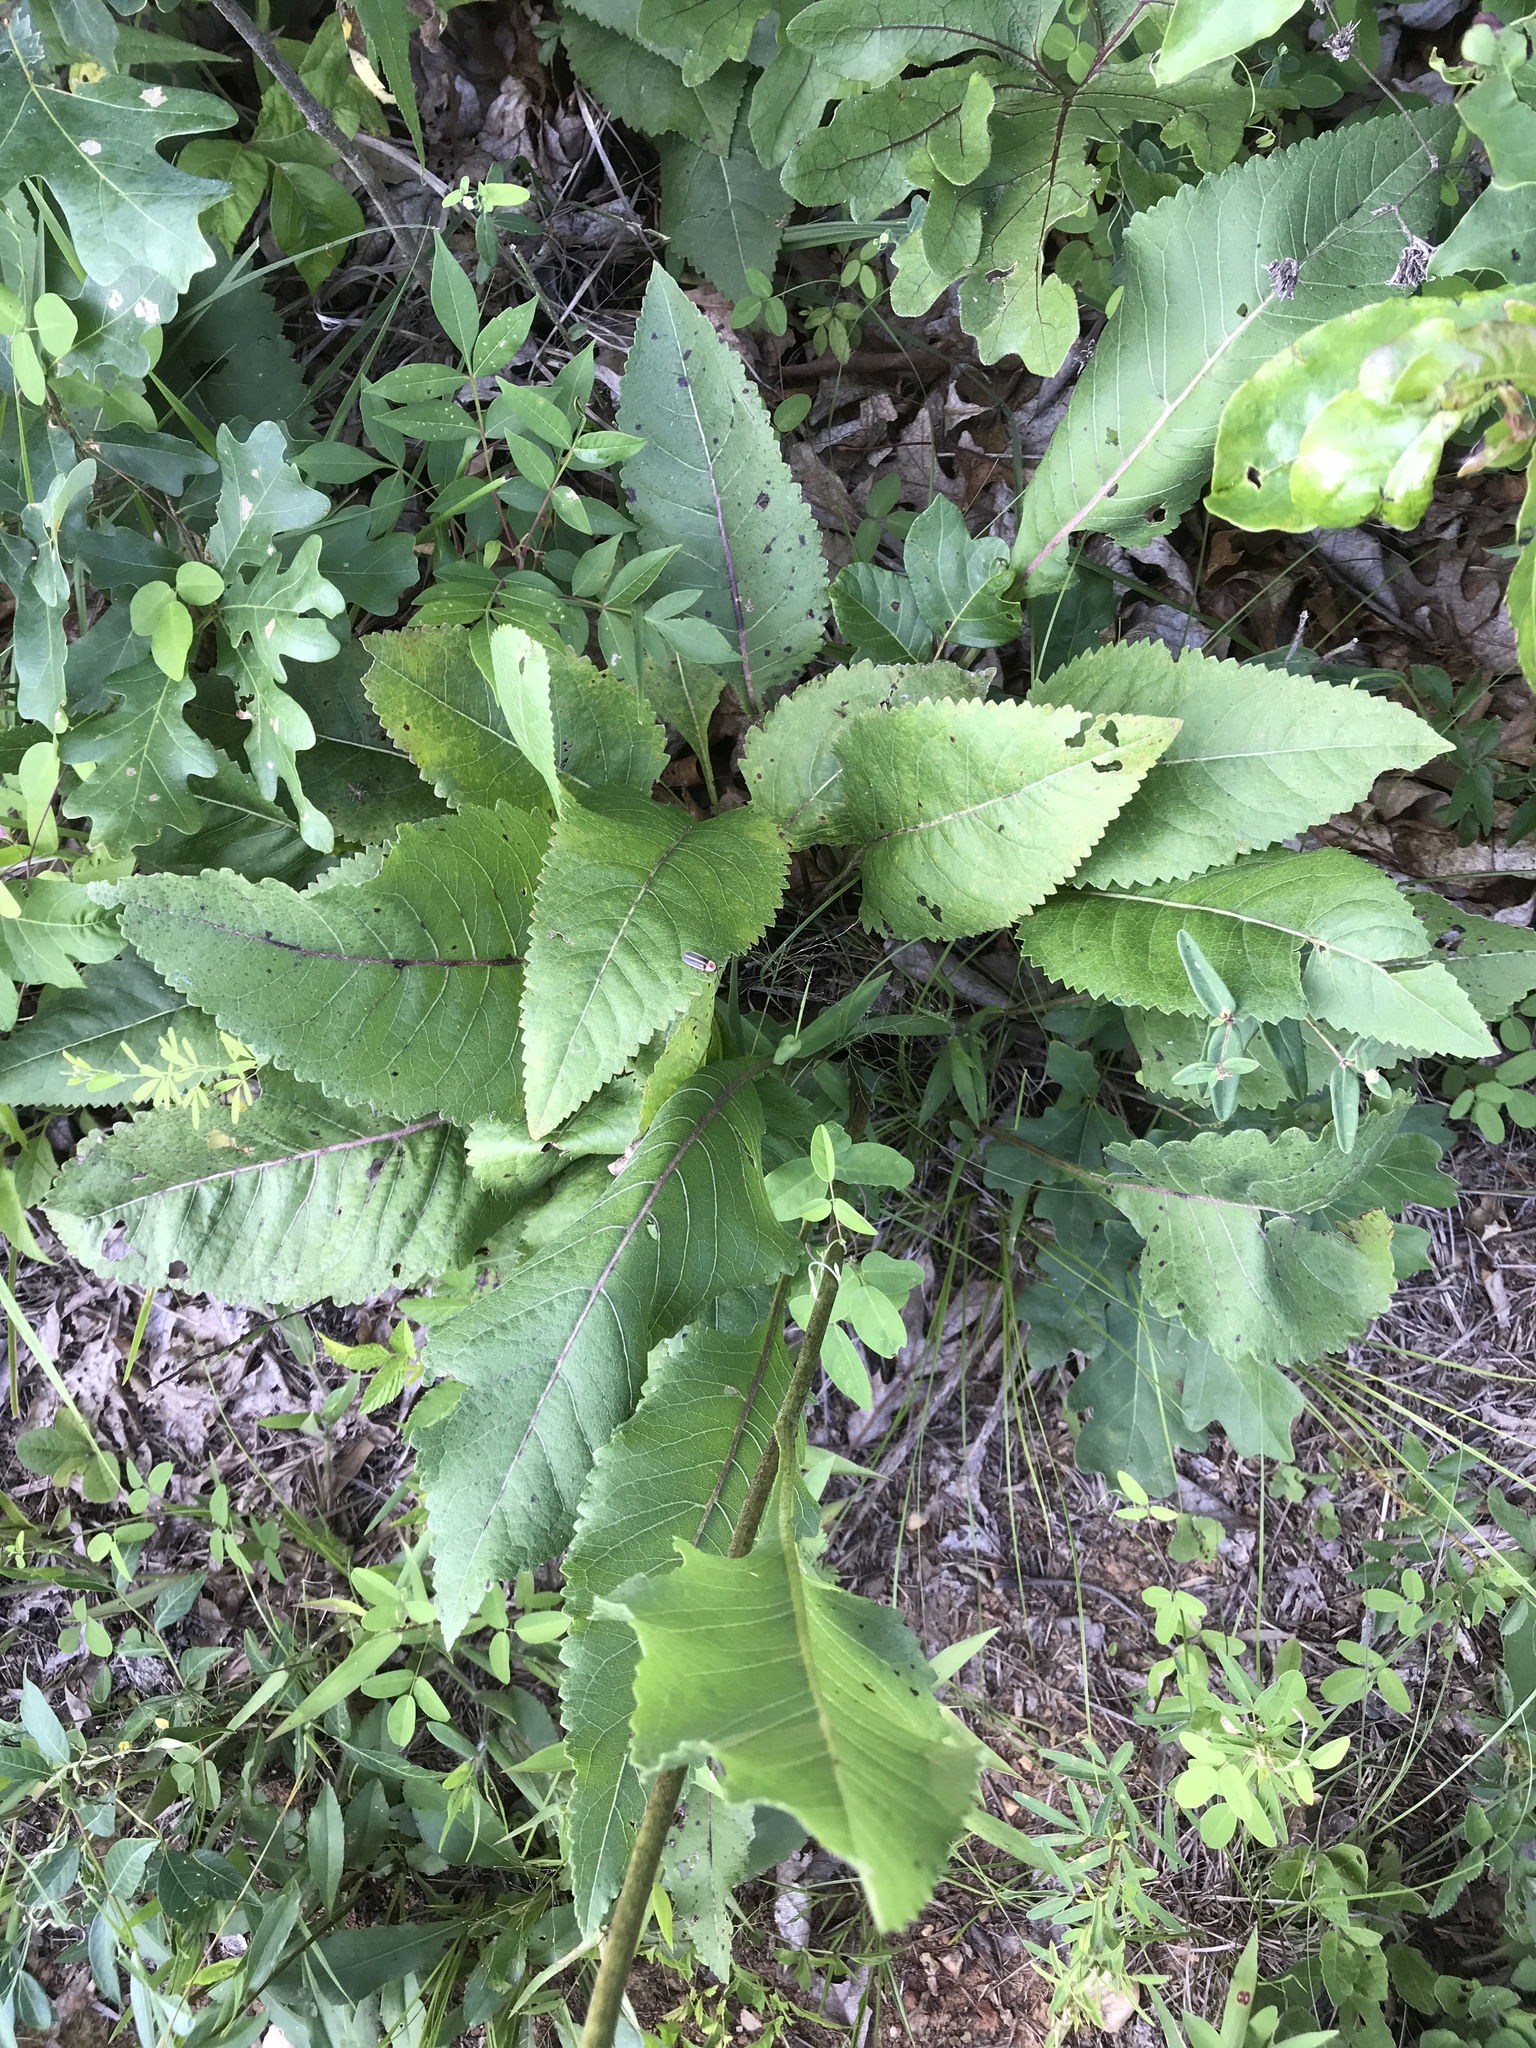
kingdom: Plantae
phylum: Tracheophyta
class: Magnoliopsida
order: Asterales
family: Asteraceae
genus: Parthenium
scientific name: Parthenium integrifolium
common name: American feverfew
